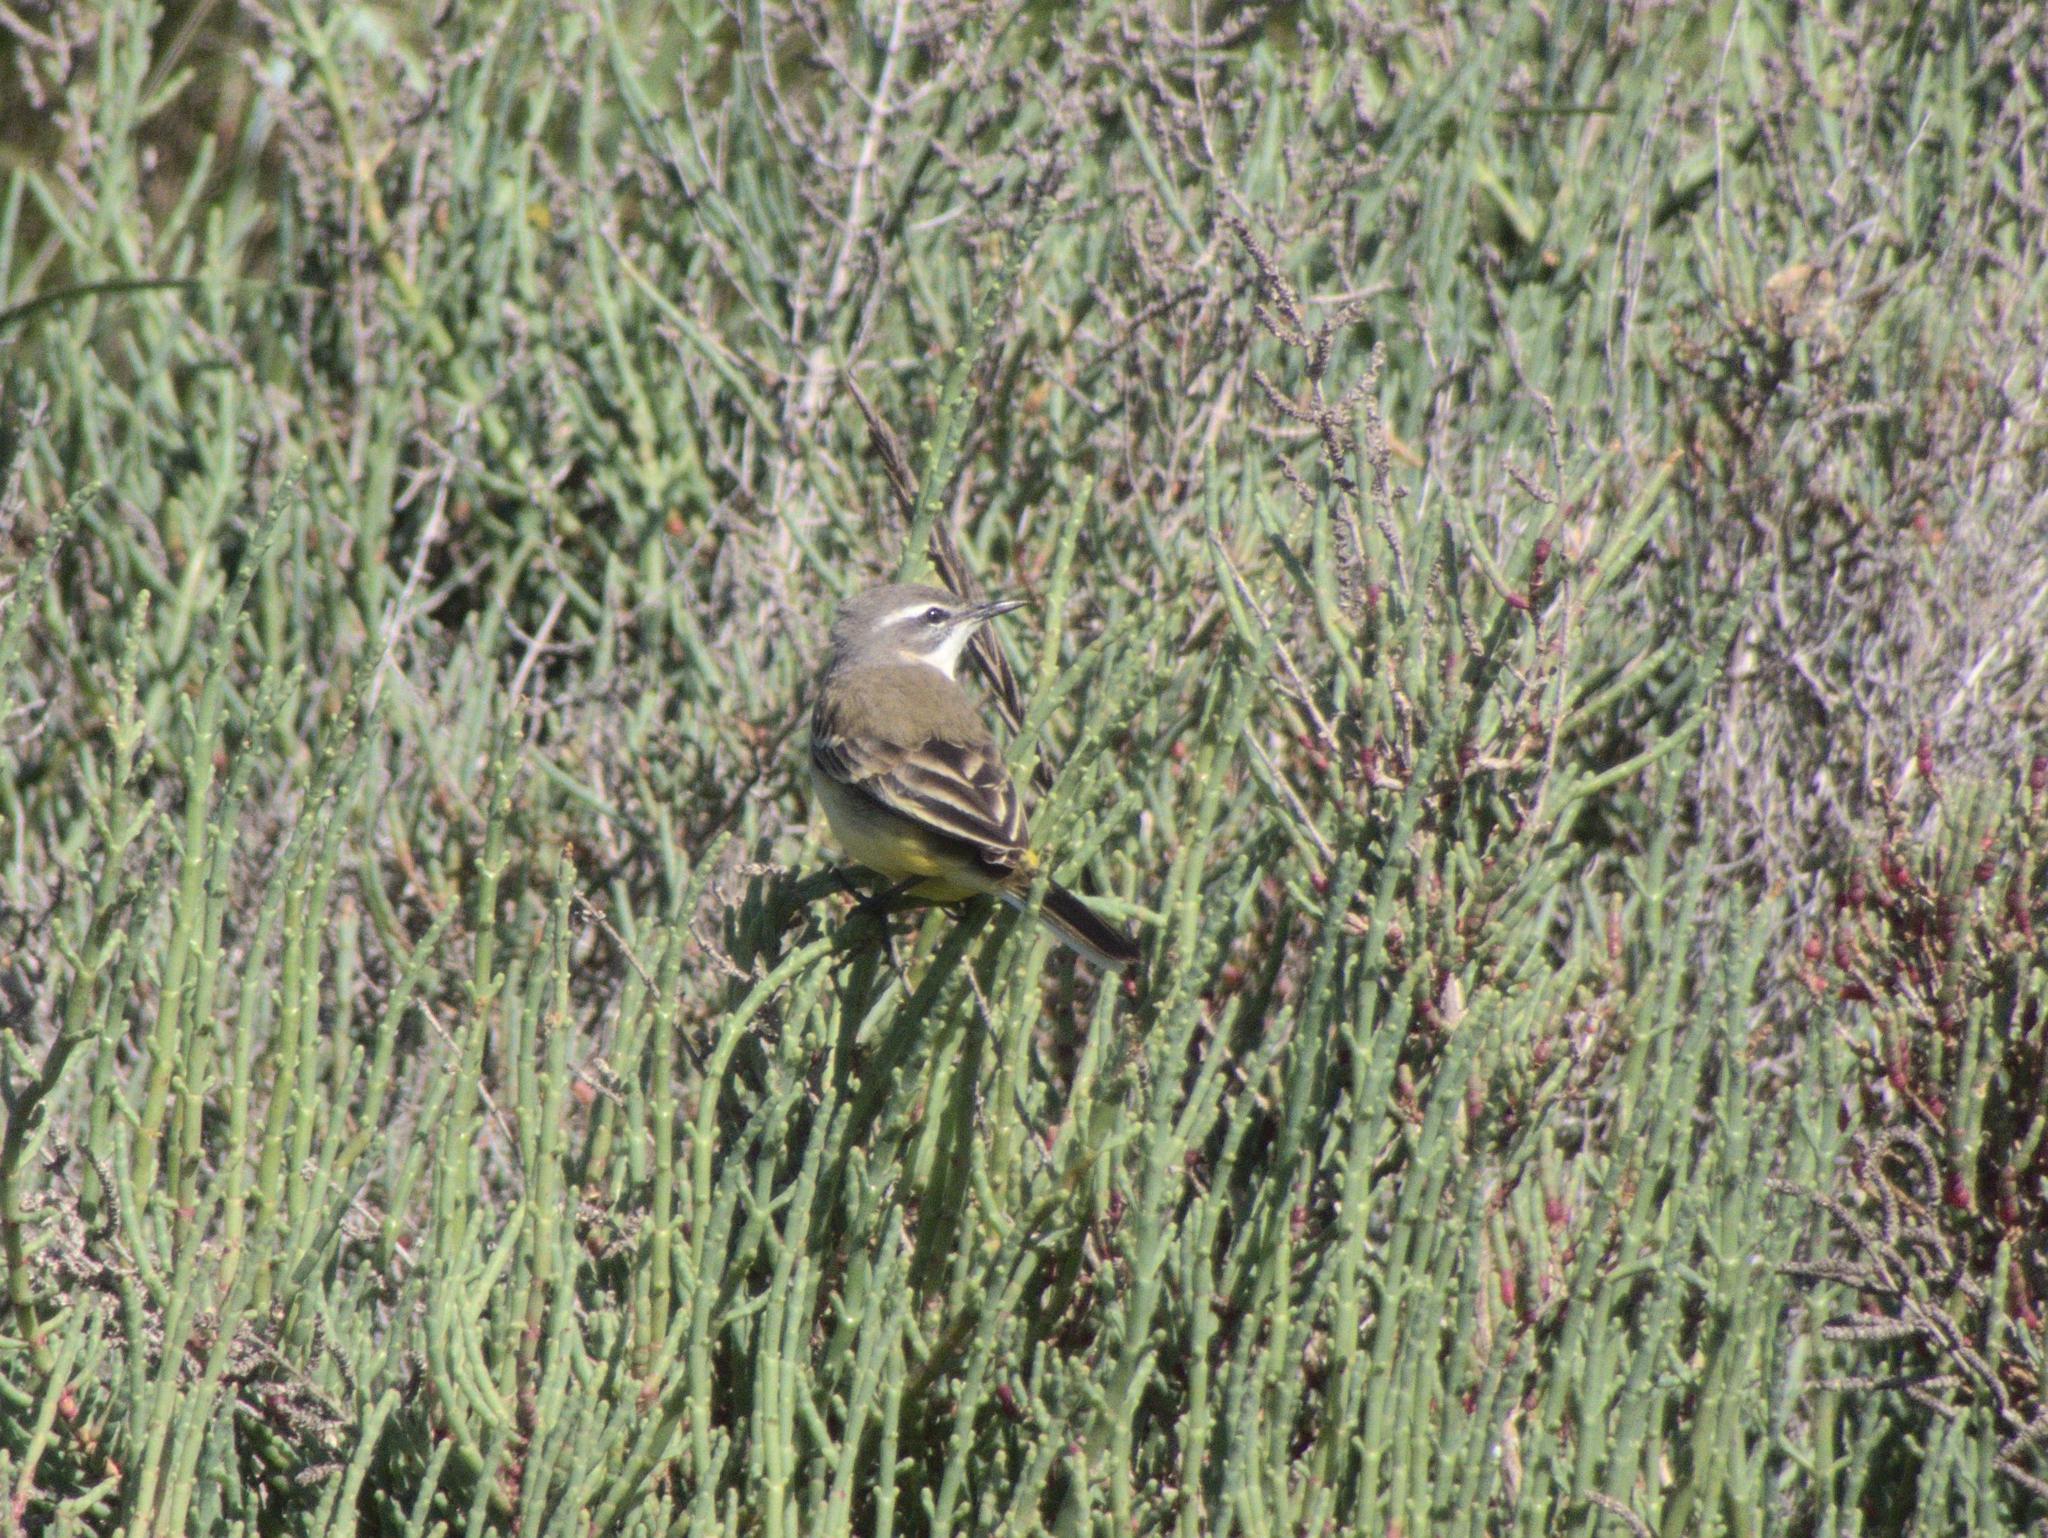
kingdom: Animalia
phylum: Chordata
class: Aves
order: Passeriformes
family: Motacillidae
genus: Motacilla
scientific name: Motacilla flava
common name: Western yellow wagtail
